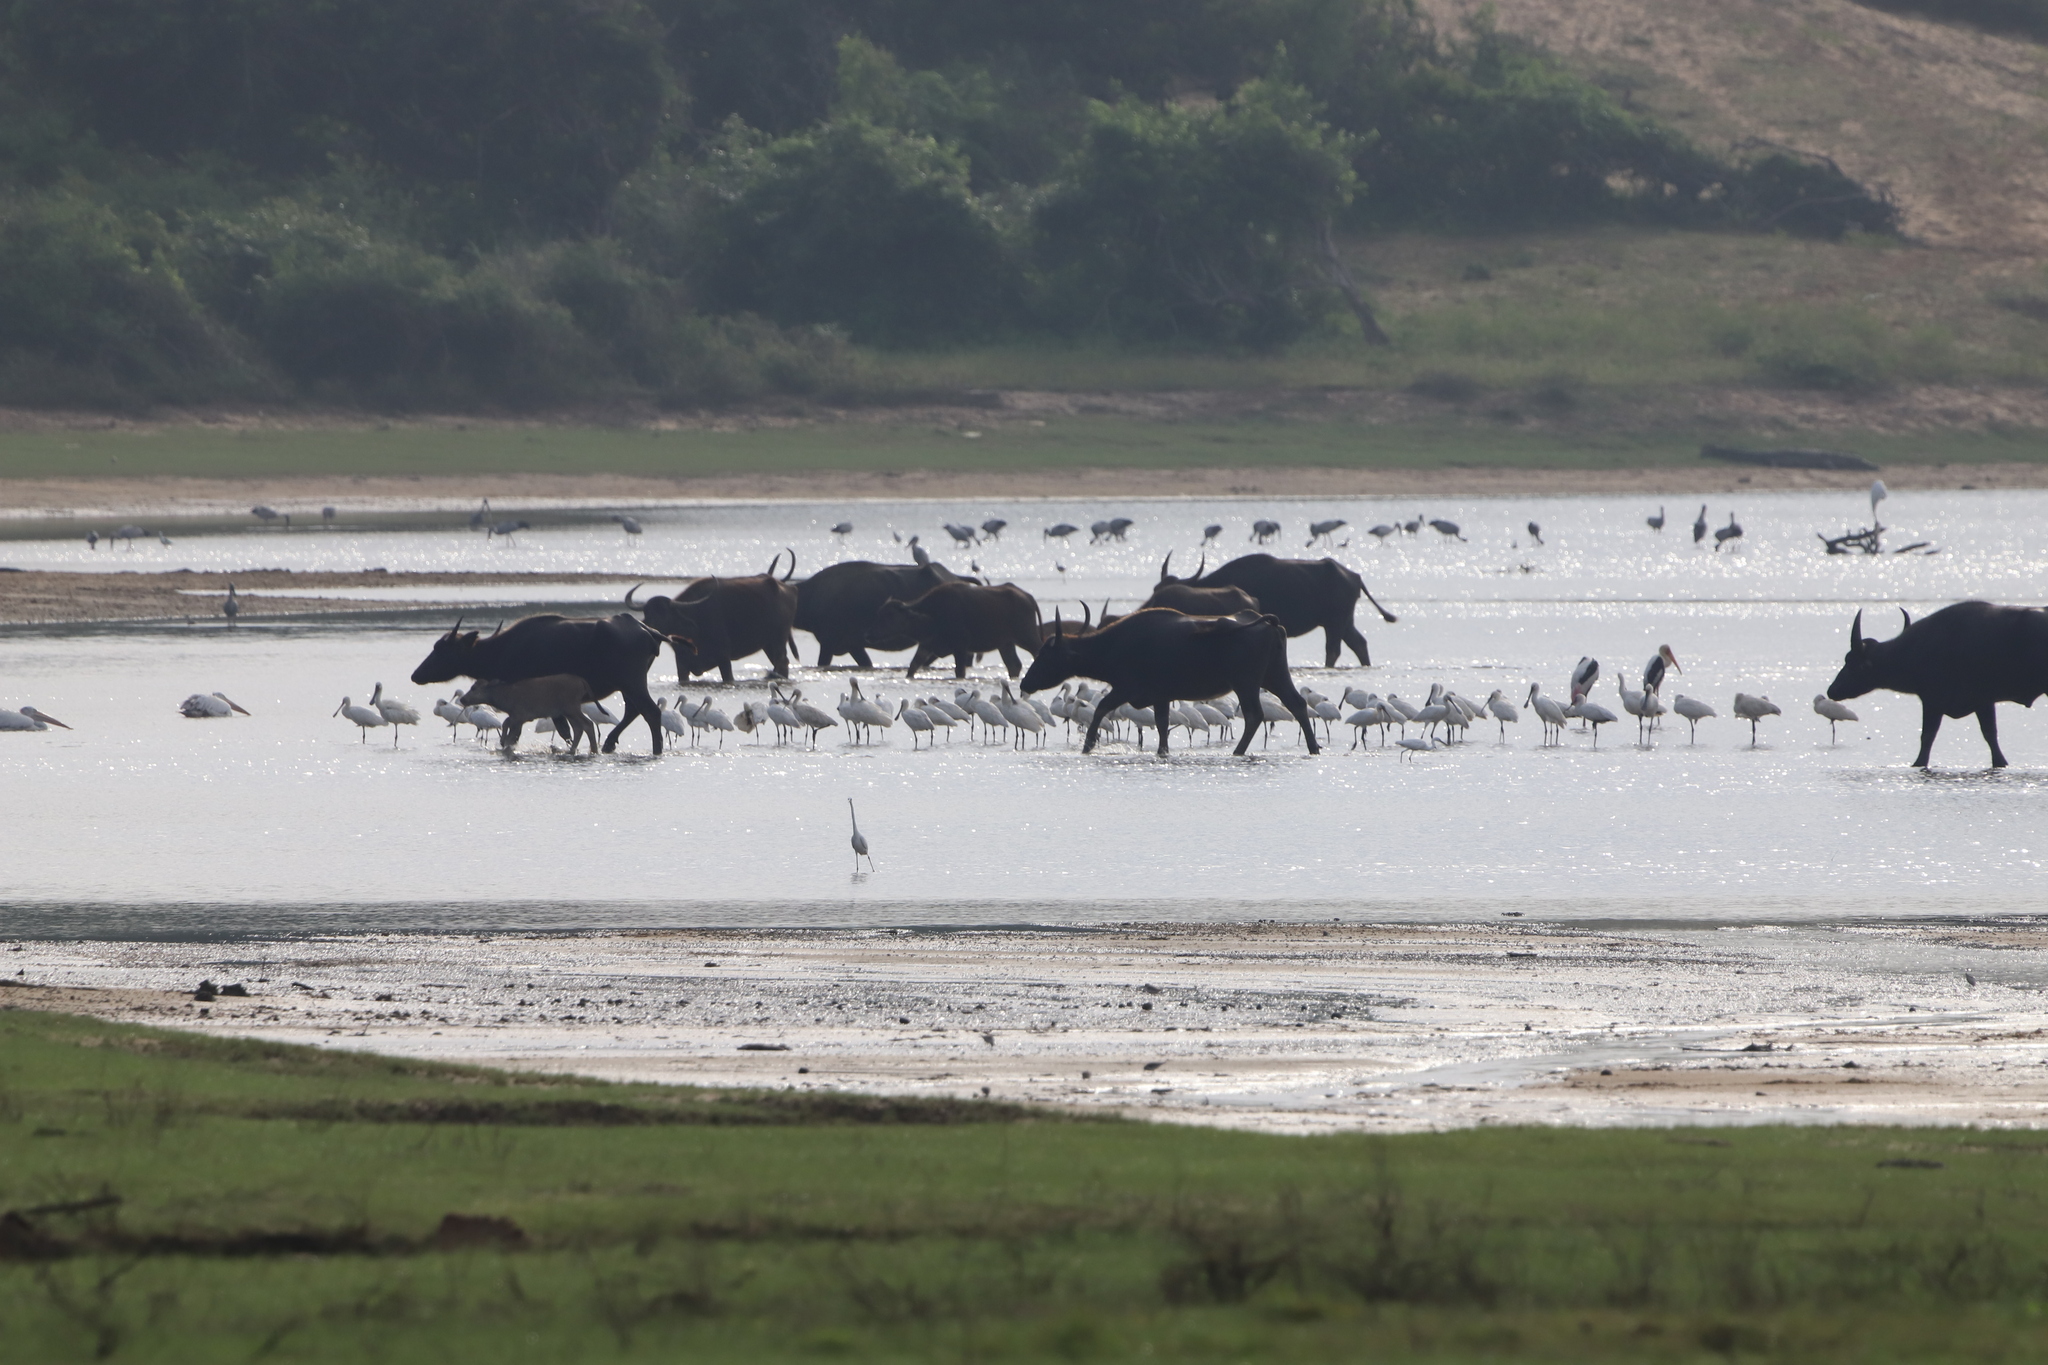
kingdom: Animalia
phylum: Chordata
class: Aves
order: Pelecaniformes
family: Threskiornithidae
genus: Platalea
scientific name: Platalea leucorodia
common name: Eurasian spoonbill
